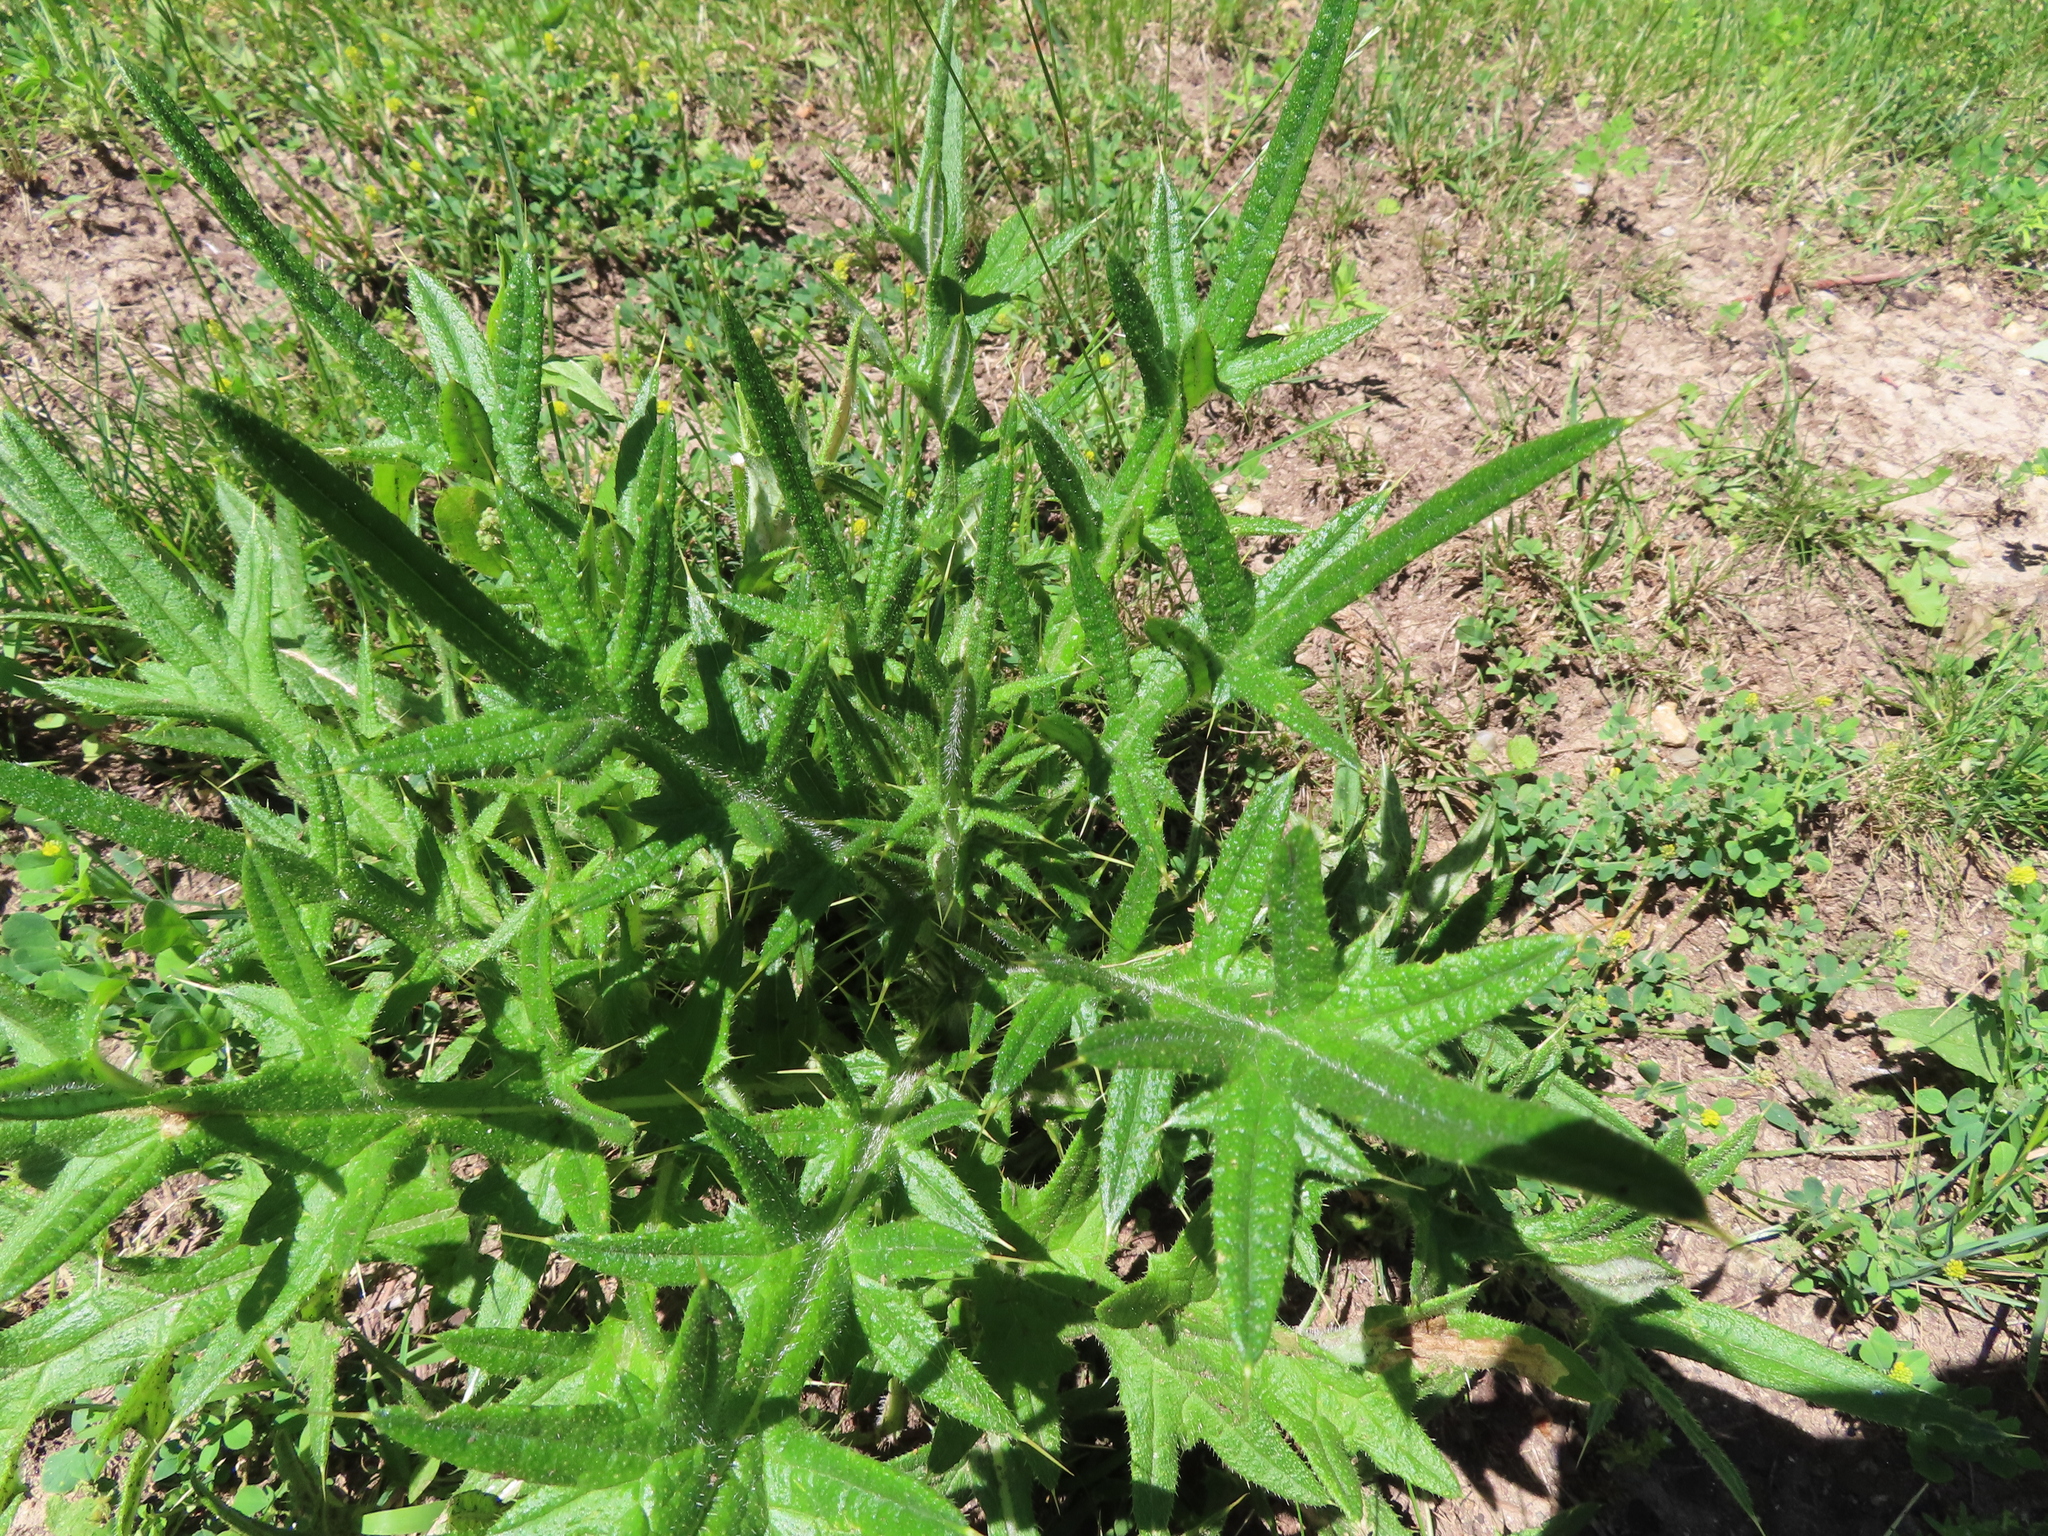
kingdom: Plantae
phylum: Tracheophyta
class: Magnoliopsida
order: Asterales
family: Asteraceae
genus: Cirsium
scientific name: Cirsium vulgare
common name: Bull thistle
